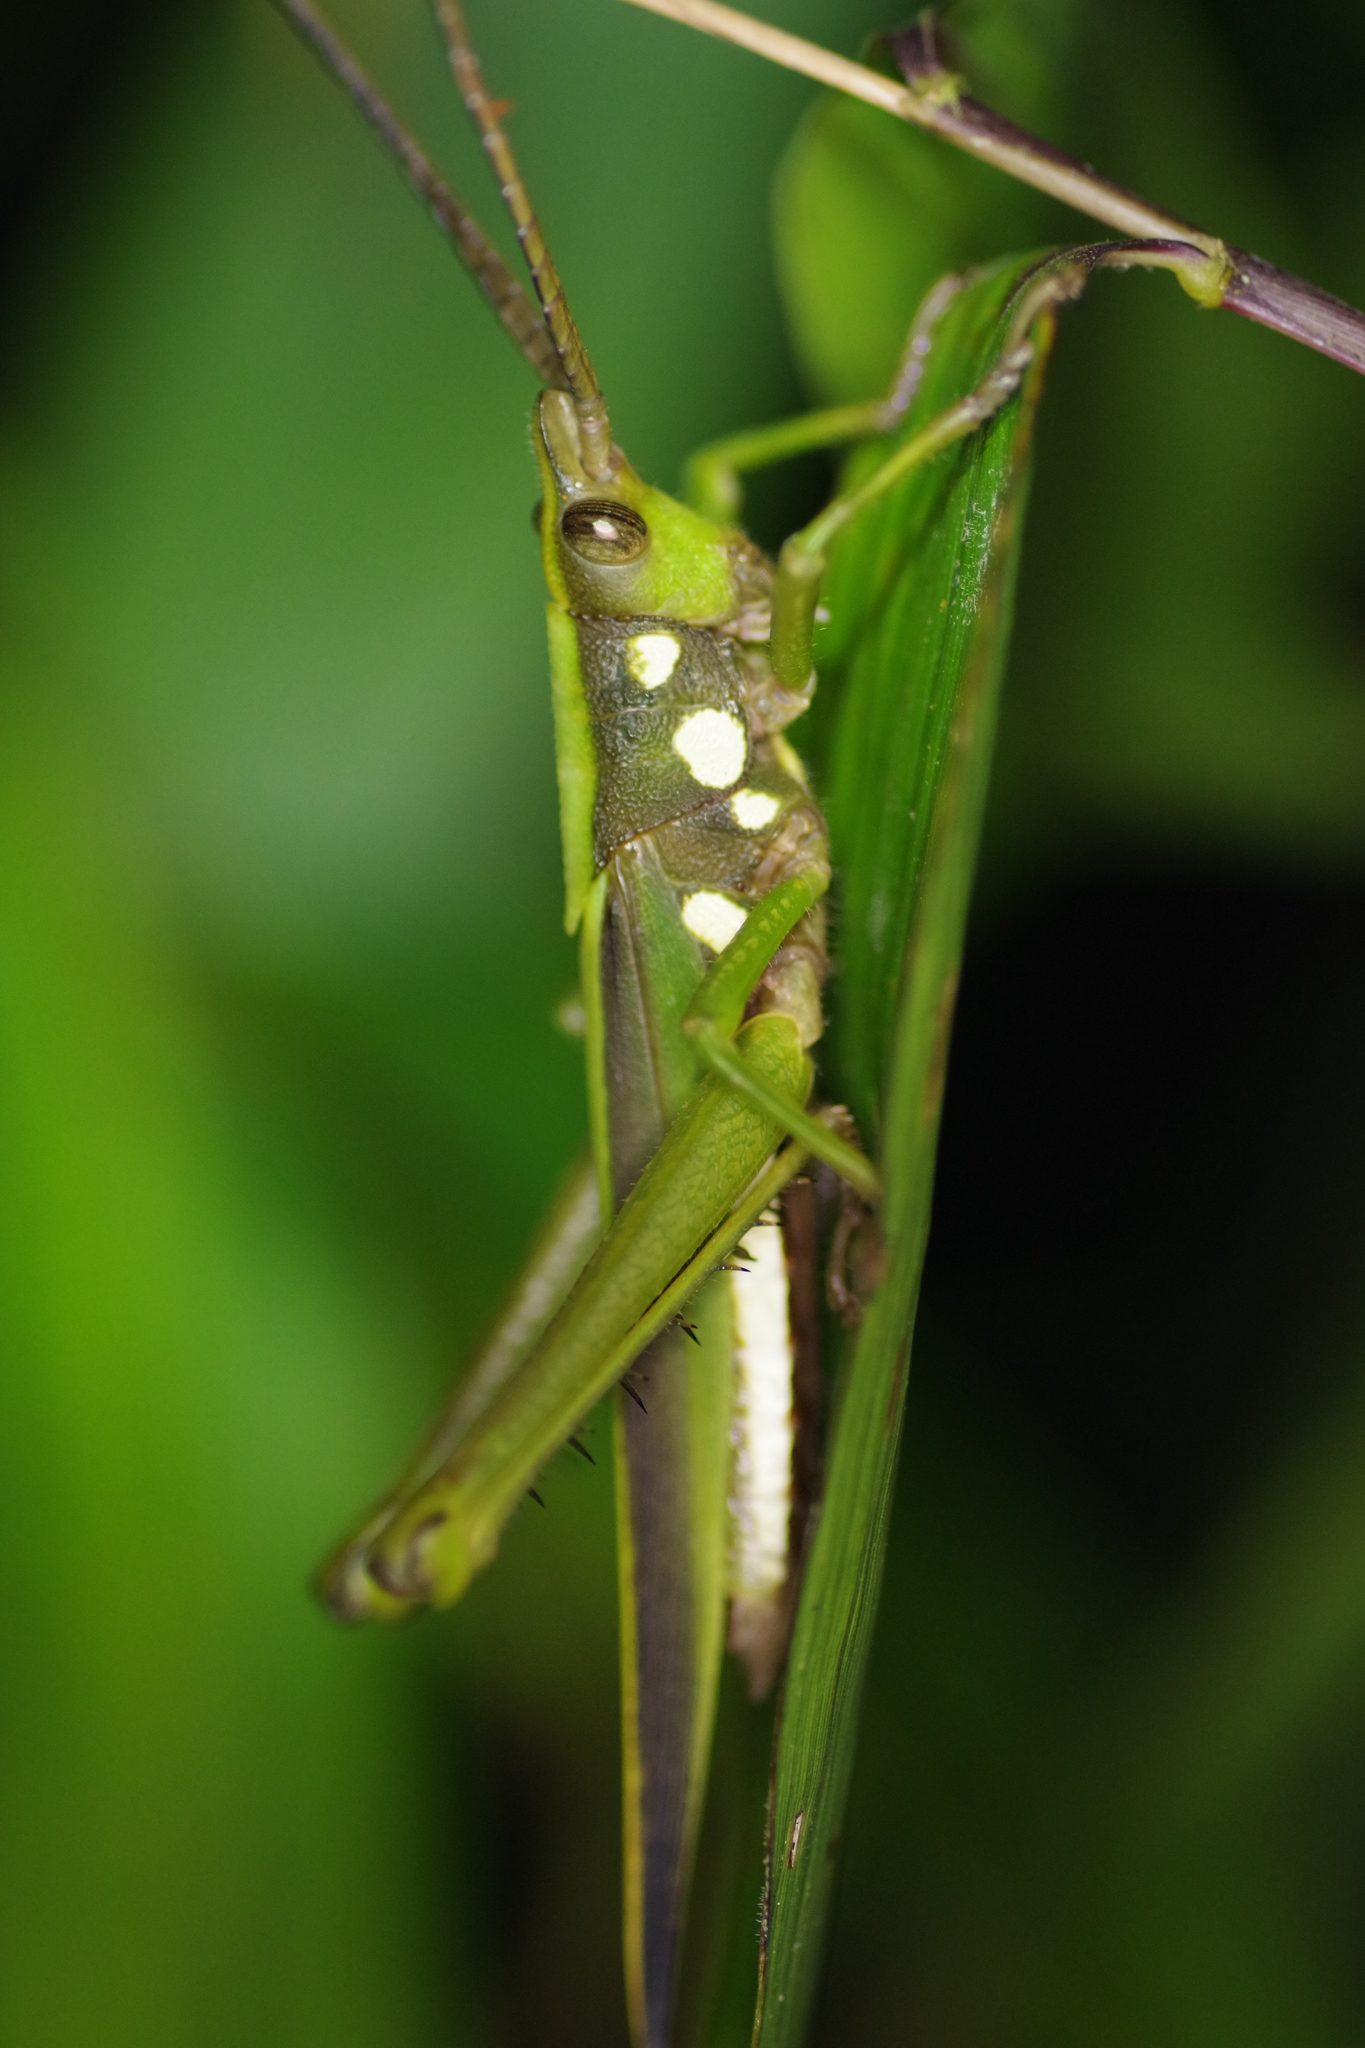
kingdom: Animalia
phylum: Arthropoda
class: Insecta
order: Orthoptera
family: Romaleidae
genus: Munatia
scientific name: Munatia punctata
